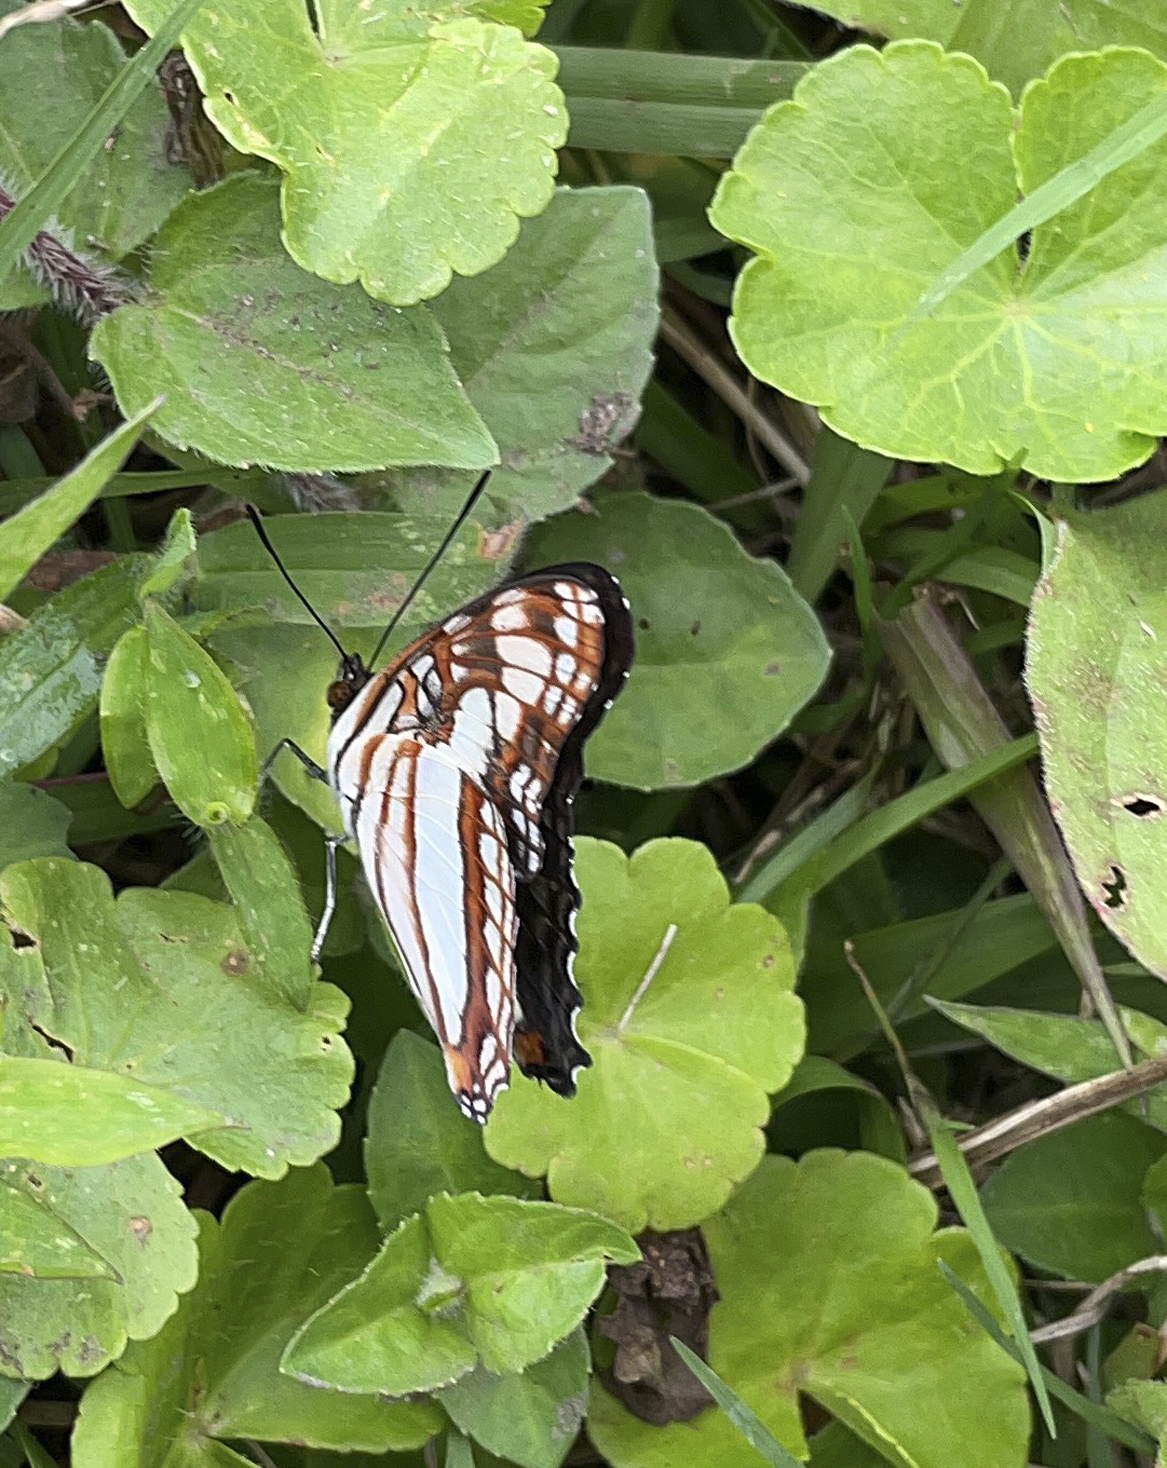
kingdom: Animalia
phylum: Arthropoda
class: Insecta
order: Lepidoptera
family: Nymphalidae
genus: Limenitis
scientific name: Limenitis paroeca
